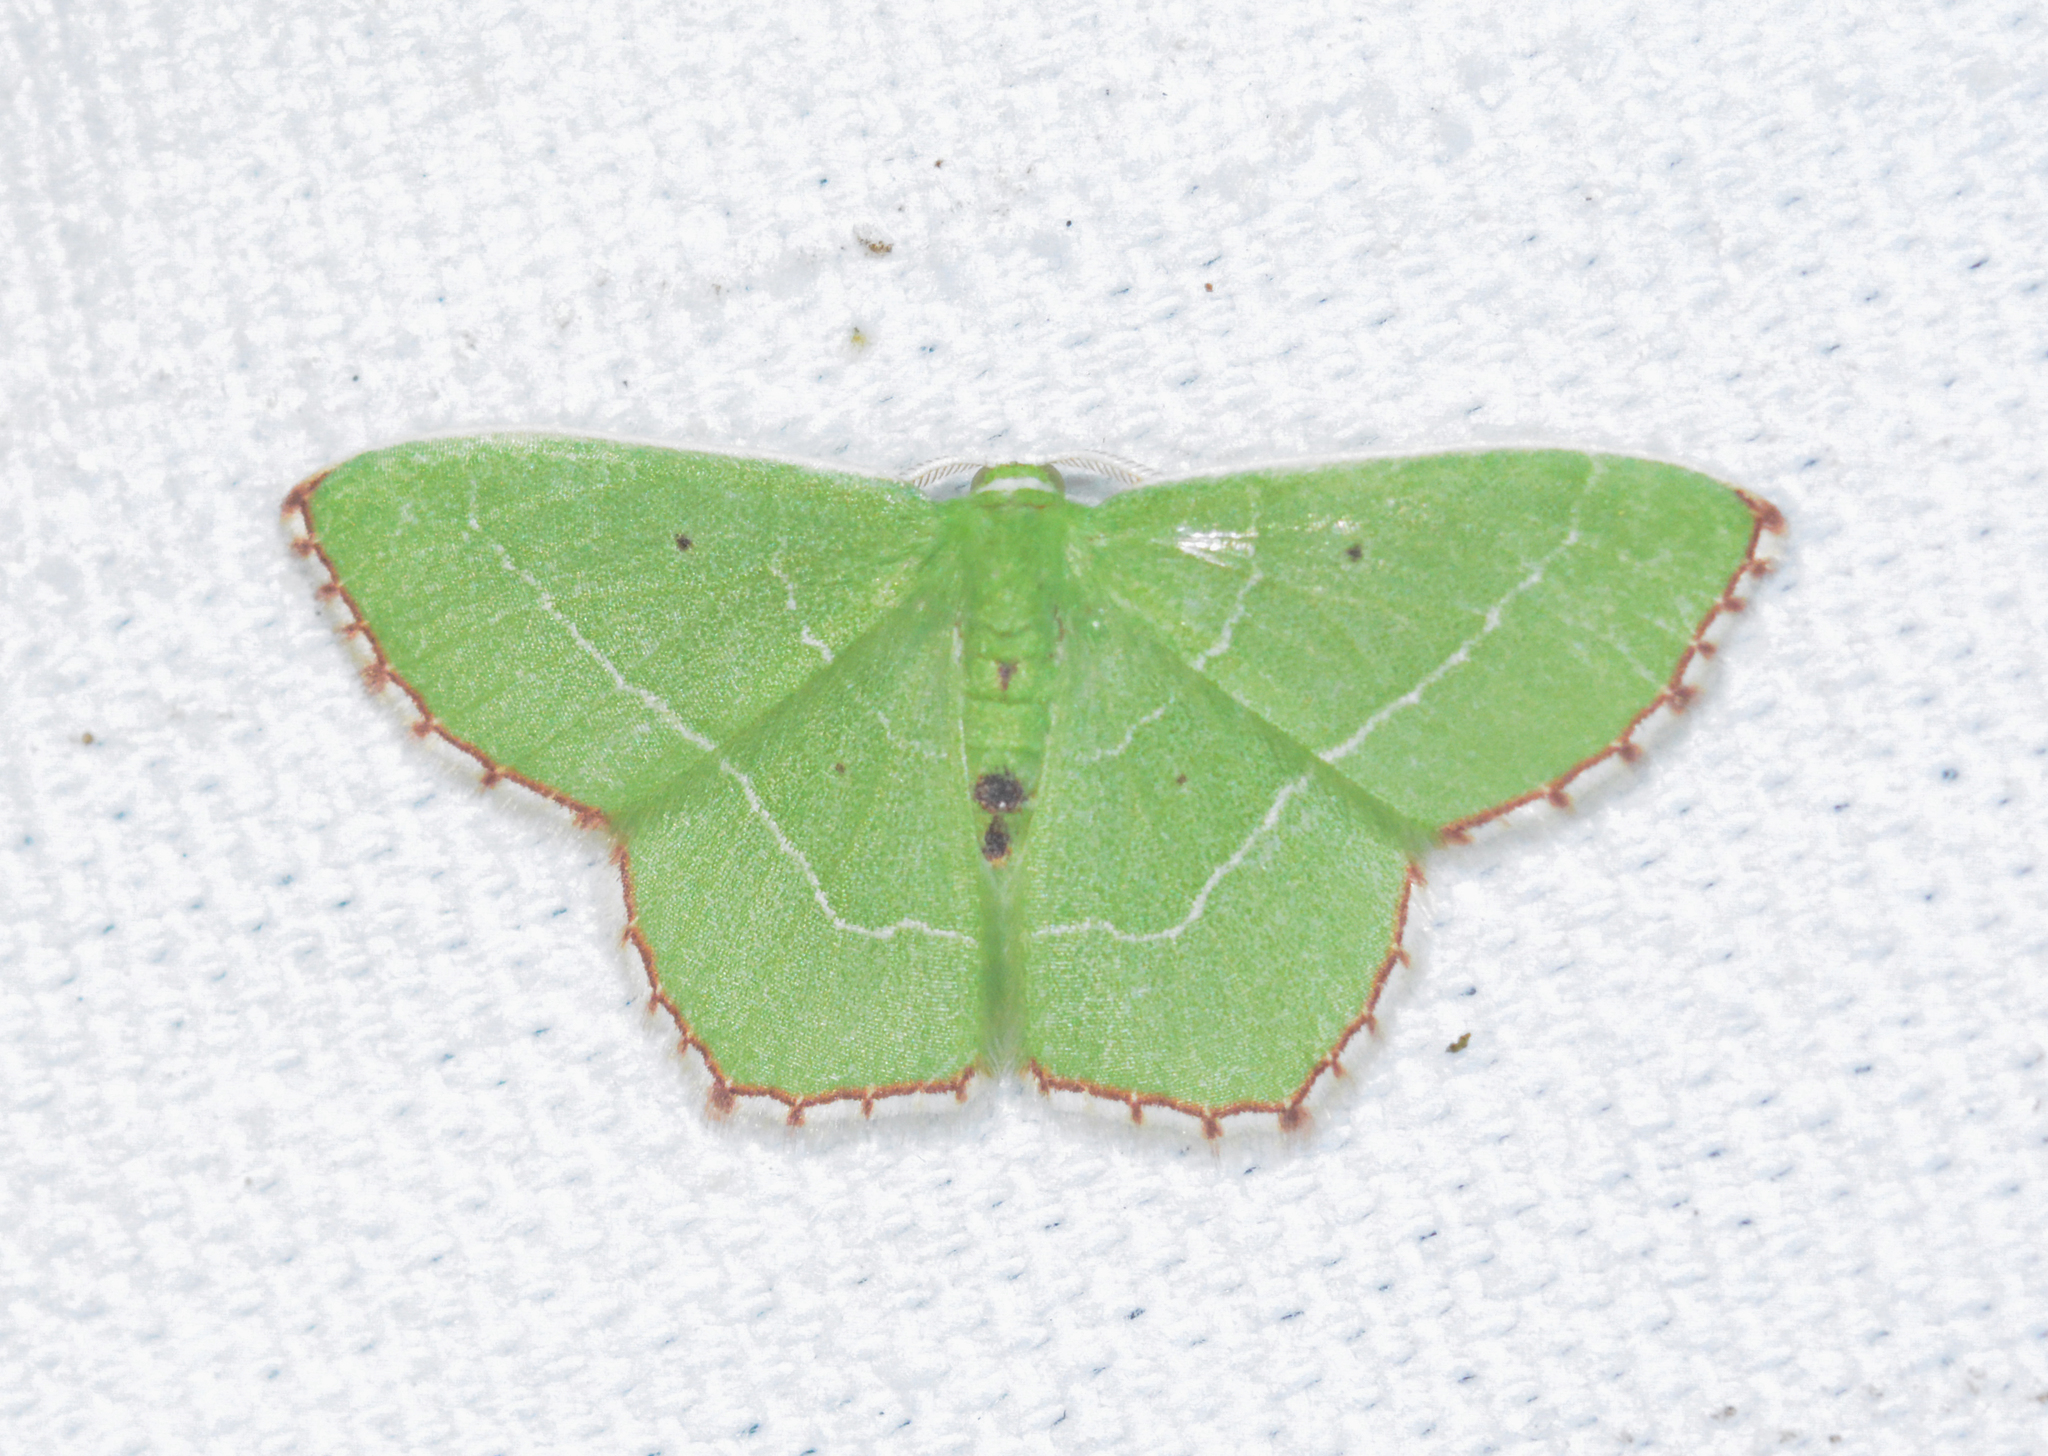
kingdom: Animalia
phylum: Arthropoda
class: Insecta
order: Lepidoptera
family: Geometridae
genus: Nemoria
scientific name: Nemoria saturiba
